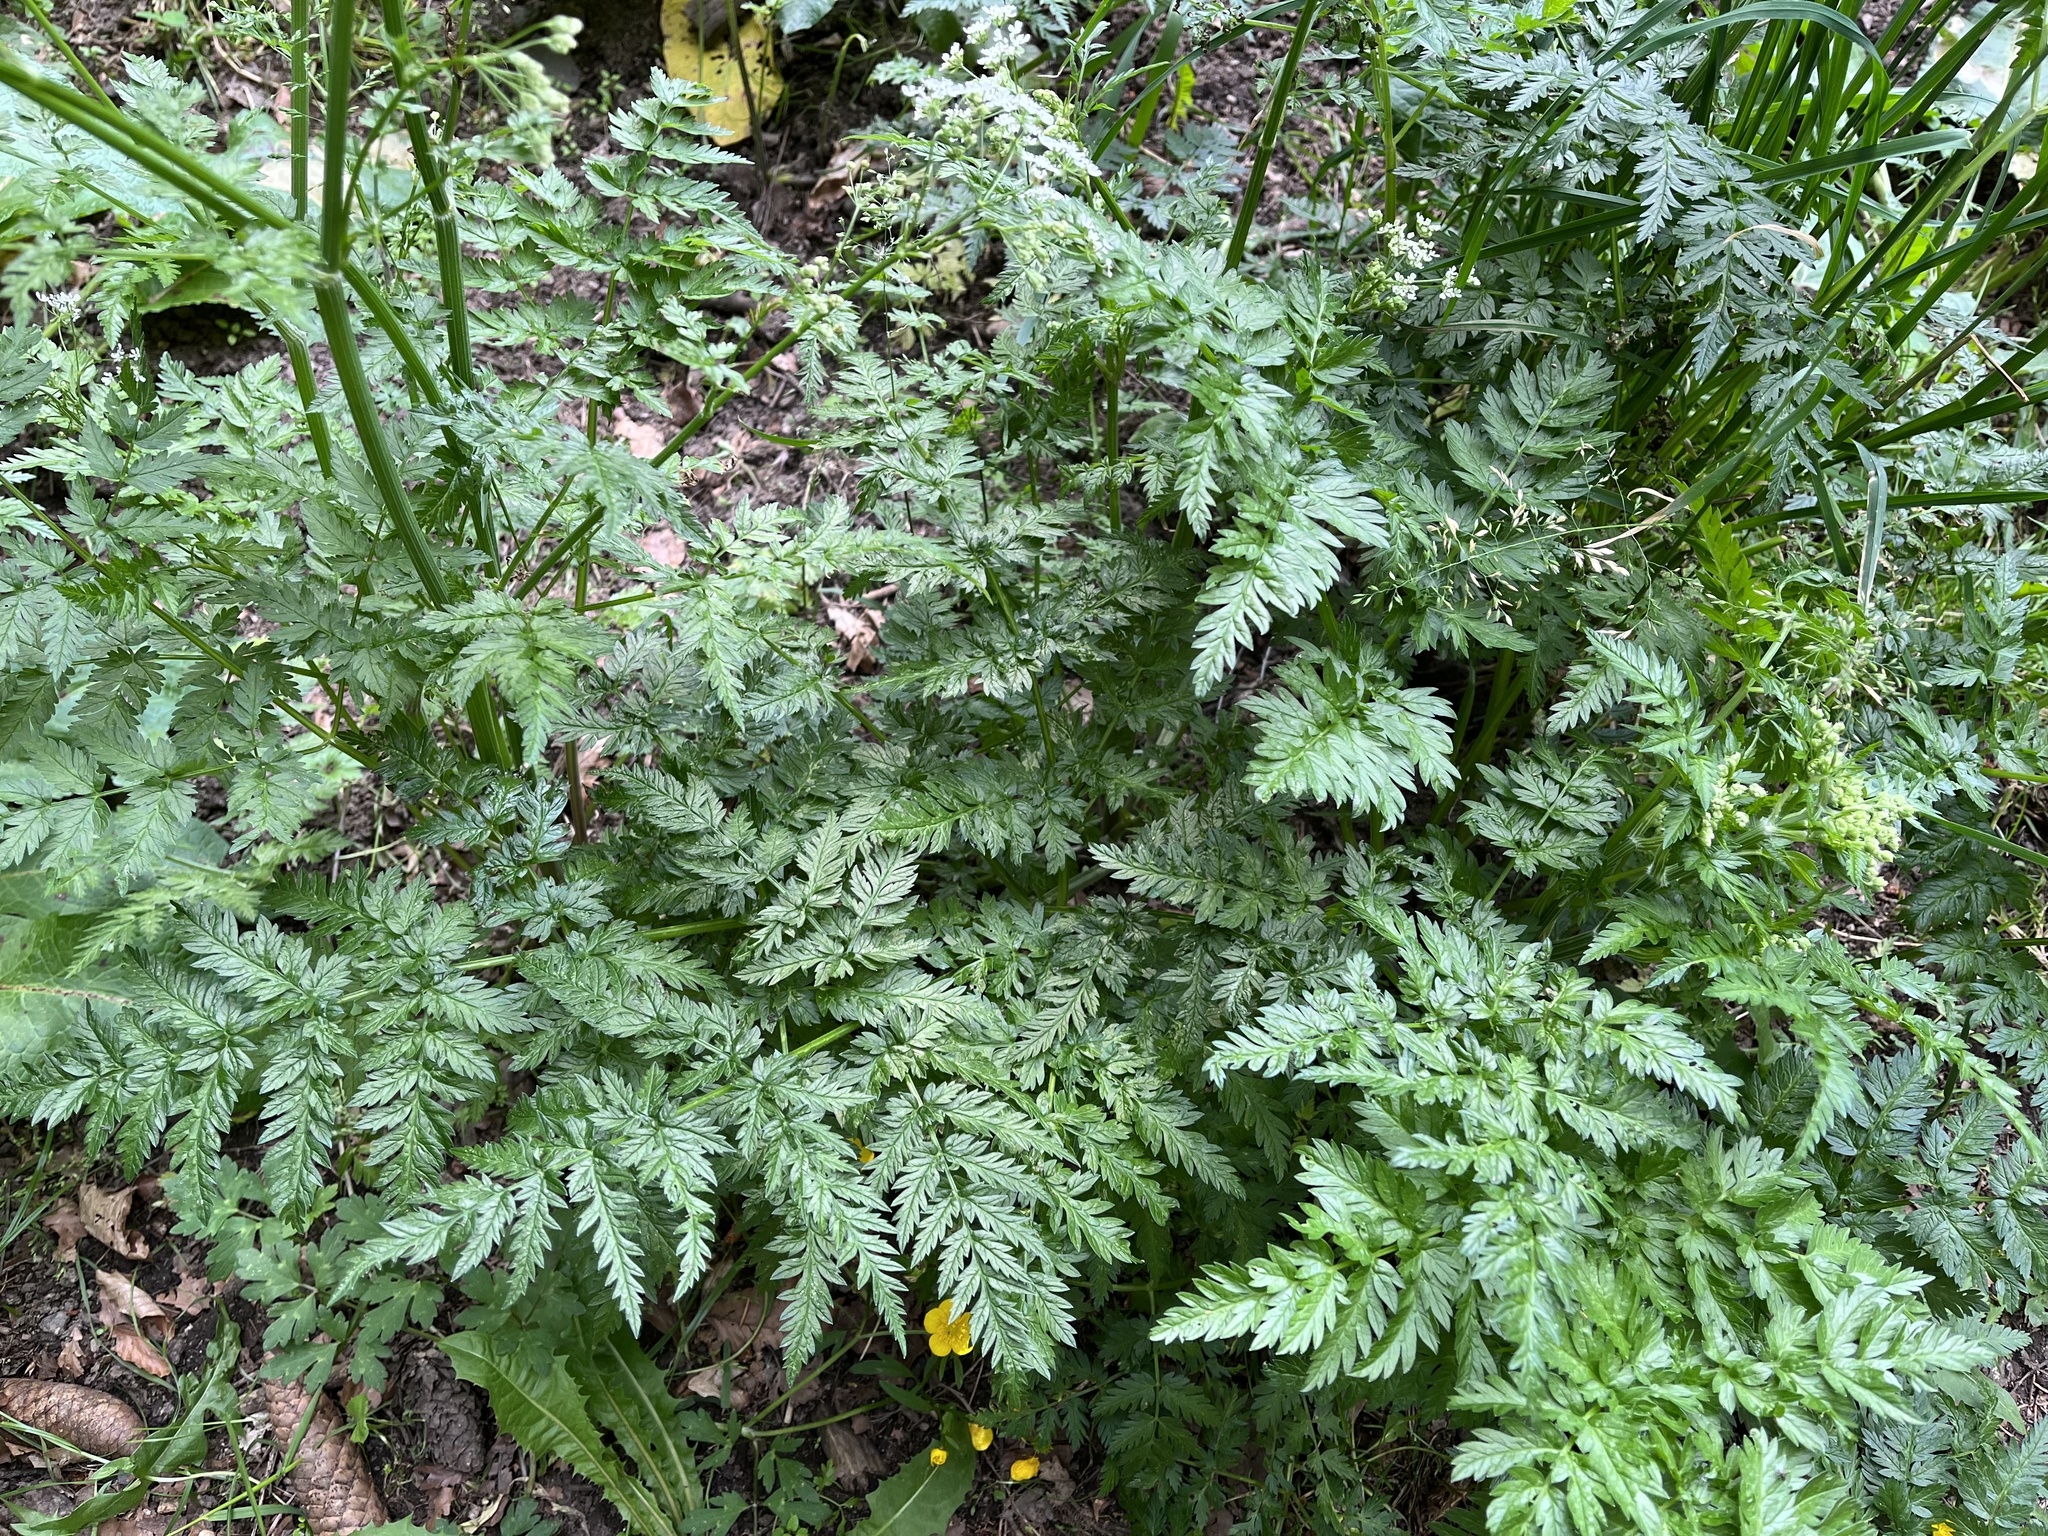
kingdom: Plantae
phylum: Tracheophyta
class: Magnoliopsida
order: Apiales
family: Apiaceae
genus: Anthriscus
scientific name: Anthriscus sylvestris
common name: Cow parsley
